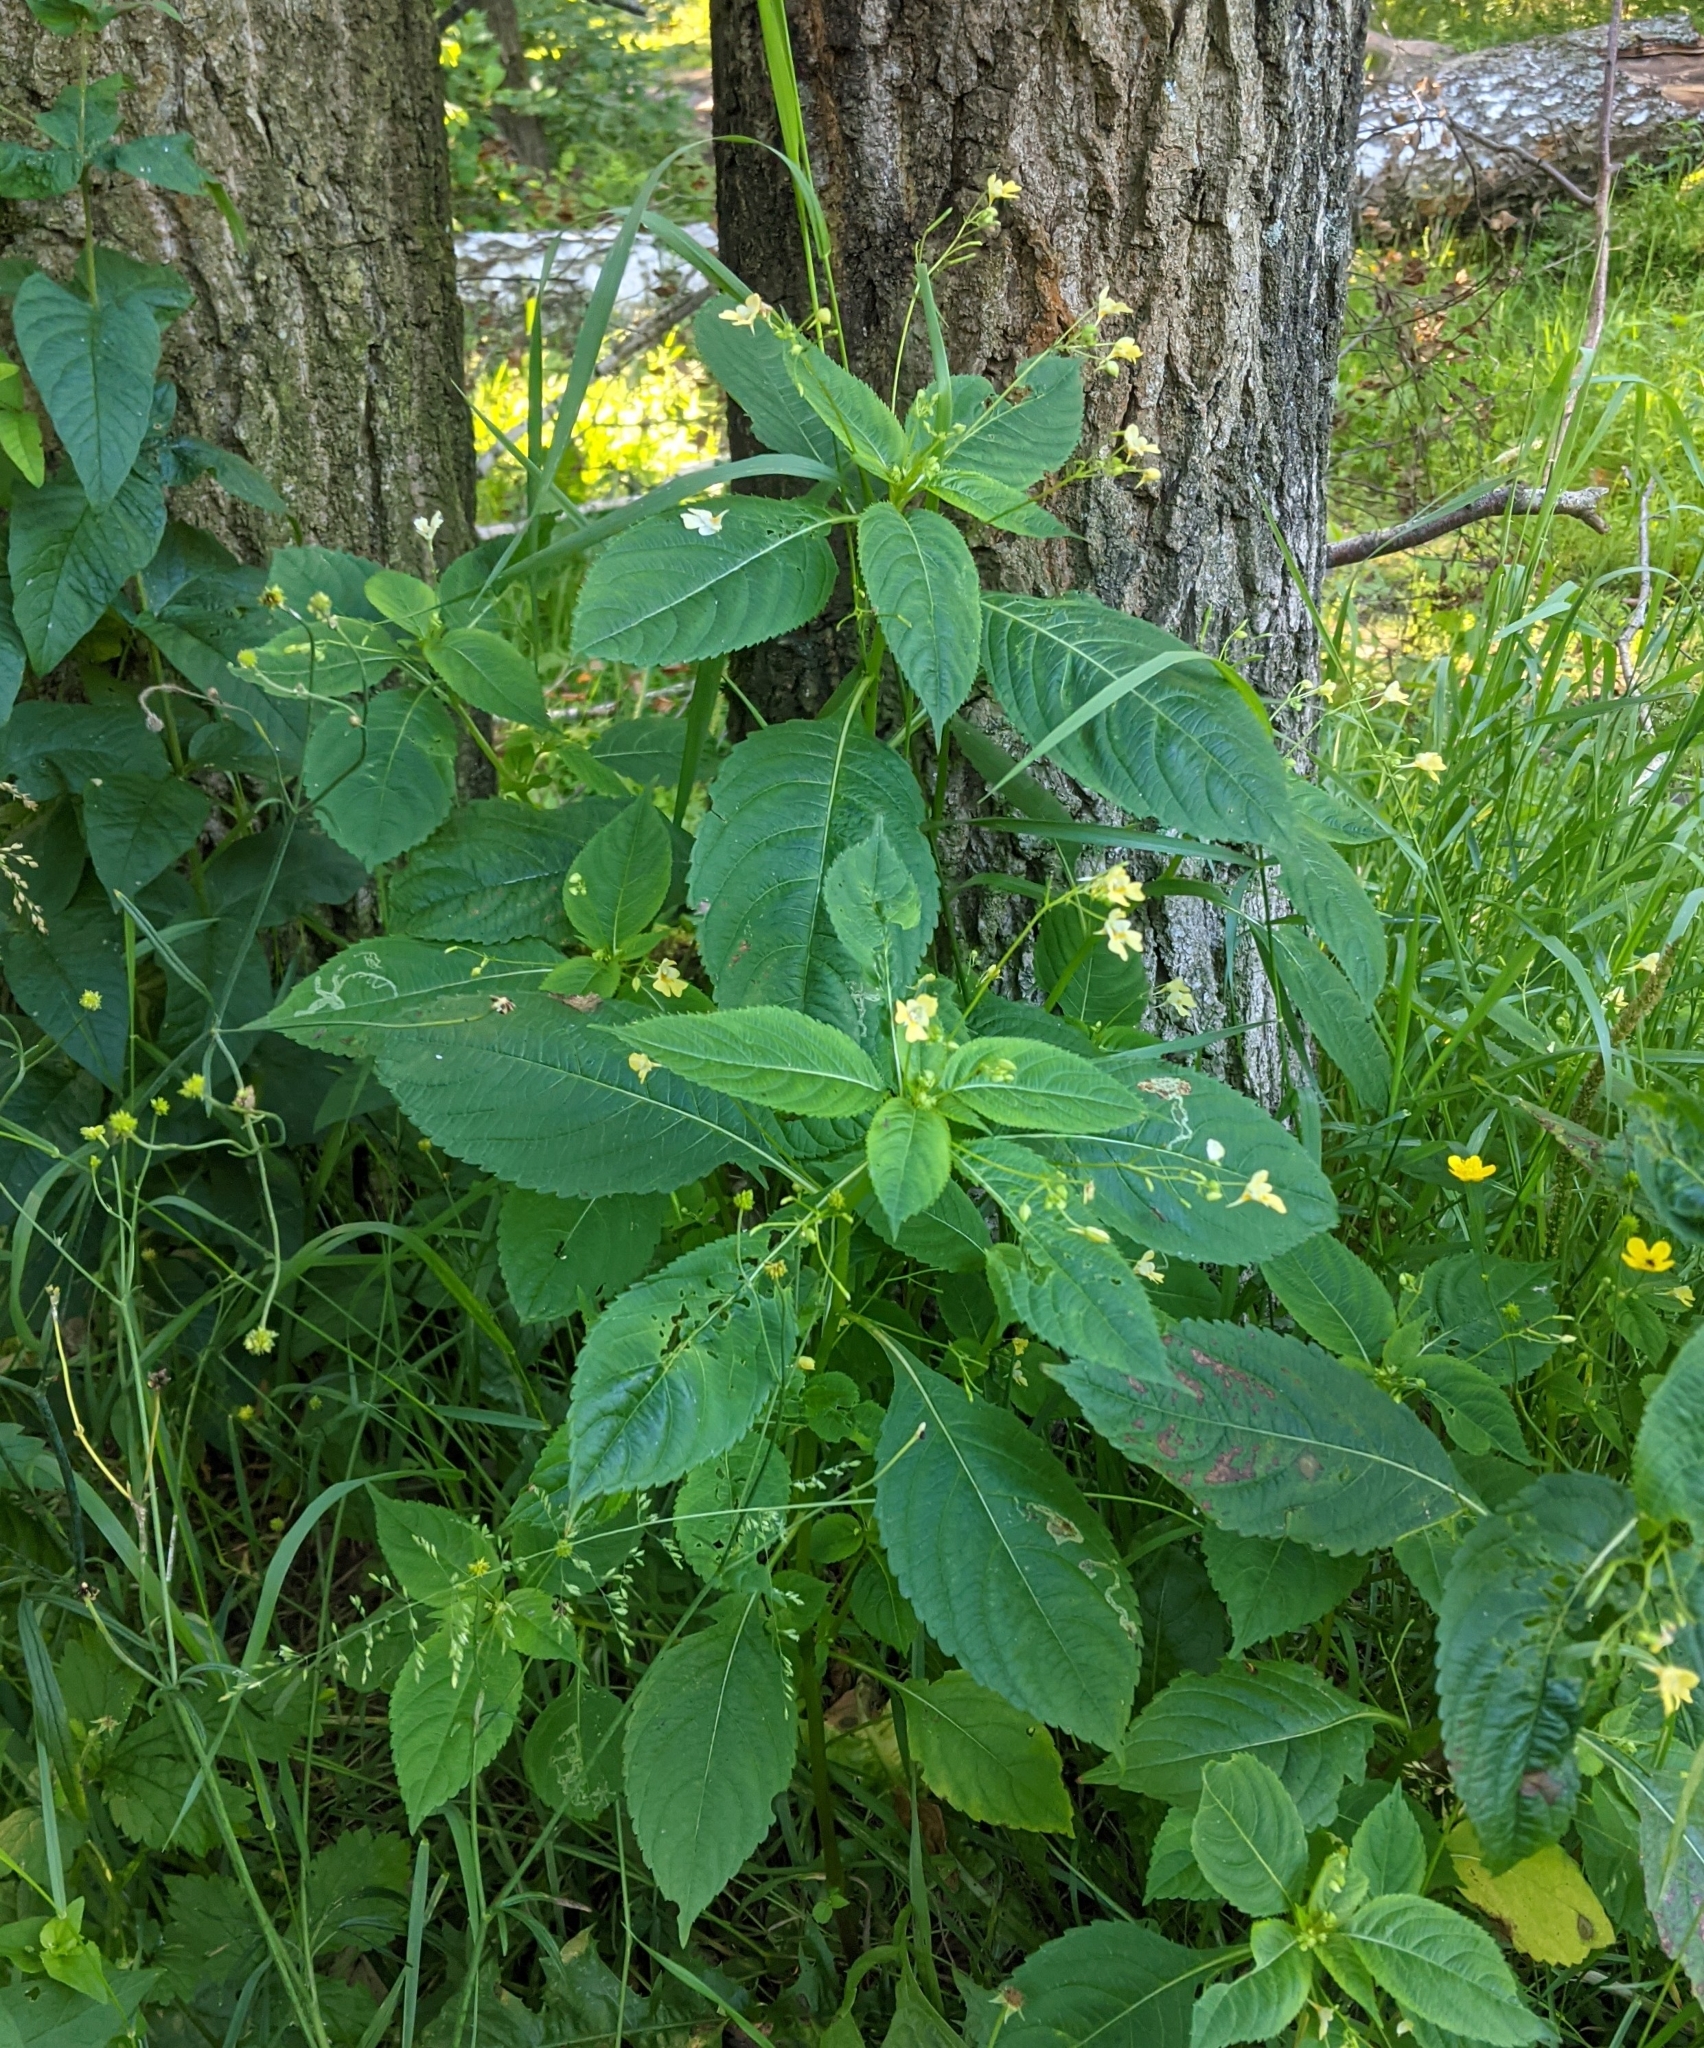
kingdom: Plantae
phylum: Tracheophyta
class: Magnoliopsida
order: Ericales
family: Balsaminaceae
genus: Impatiens
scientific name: Impatiens parviflora
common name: Small balsam
